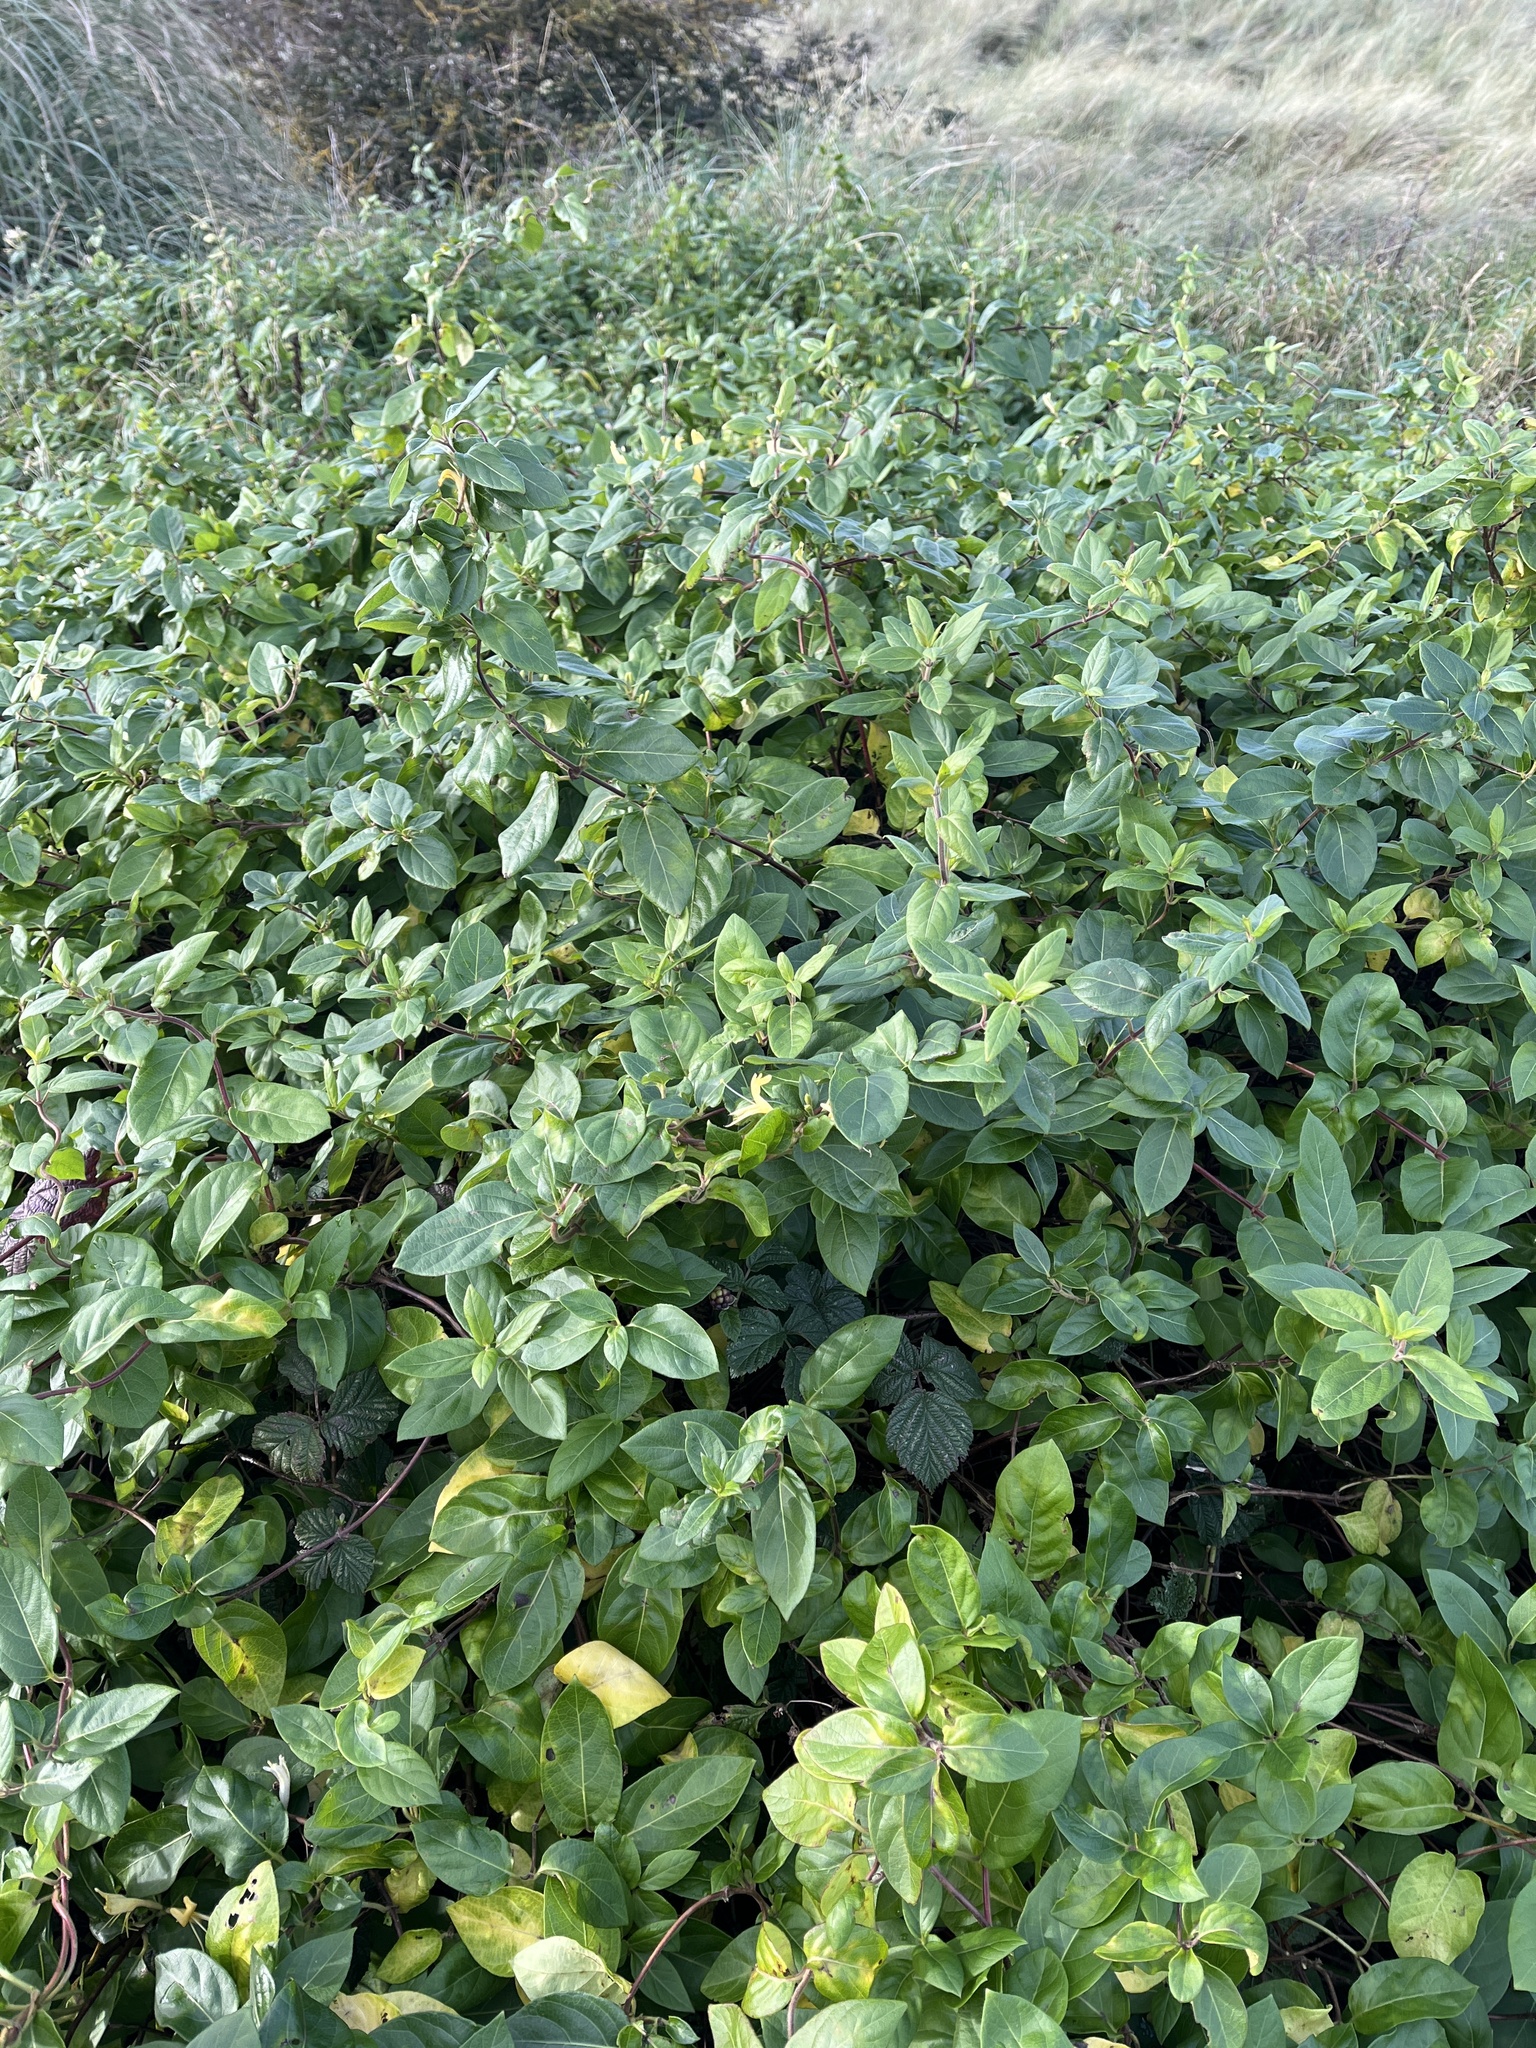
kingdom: Plantae
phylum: Tracheophyta
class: Magnoliopsida
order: Dipsacales
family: Caprifoliaceae
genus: Lonicera
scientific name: Lonicera japonica
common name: Japanese honeysuckle
